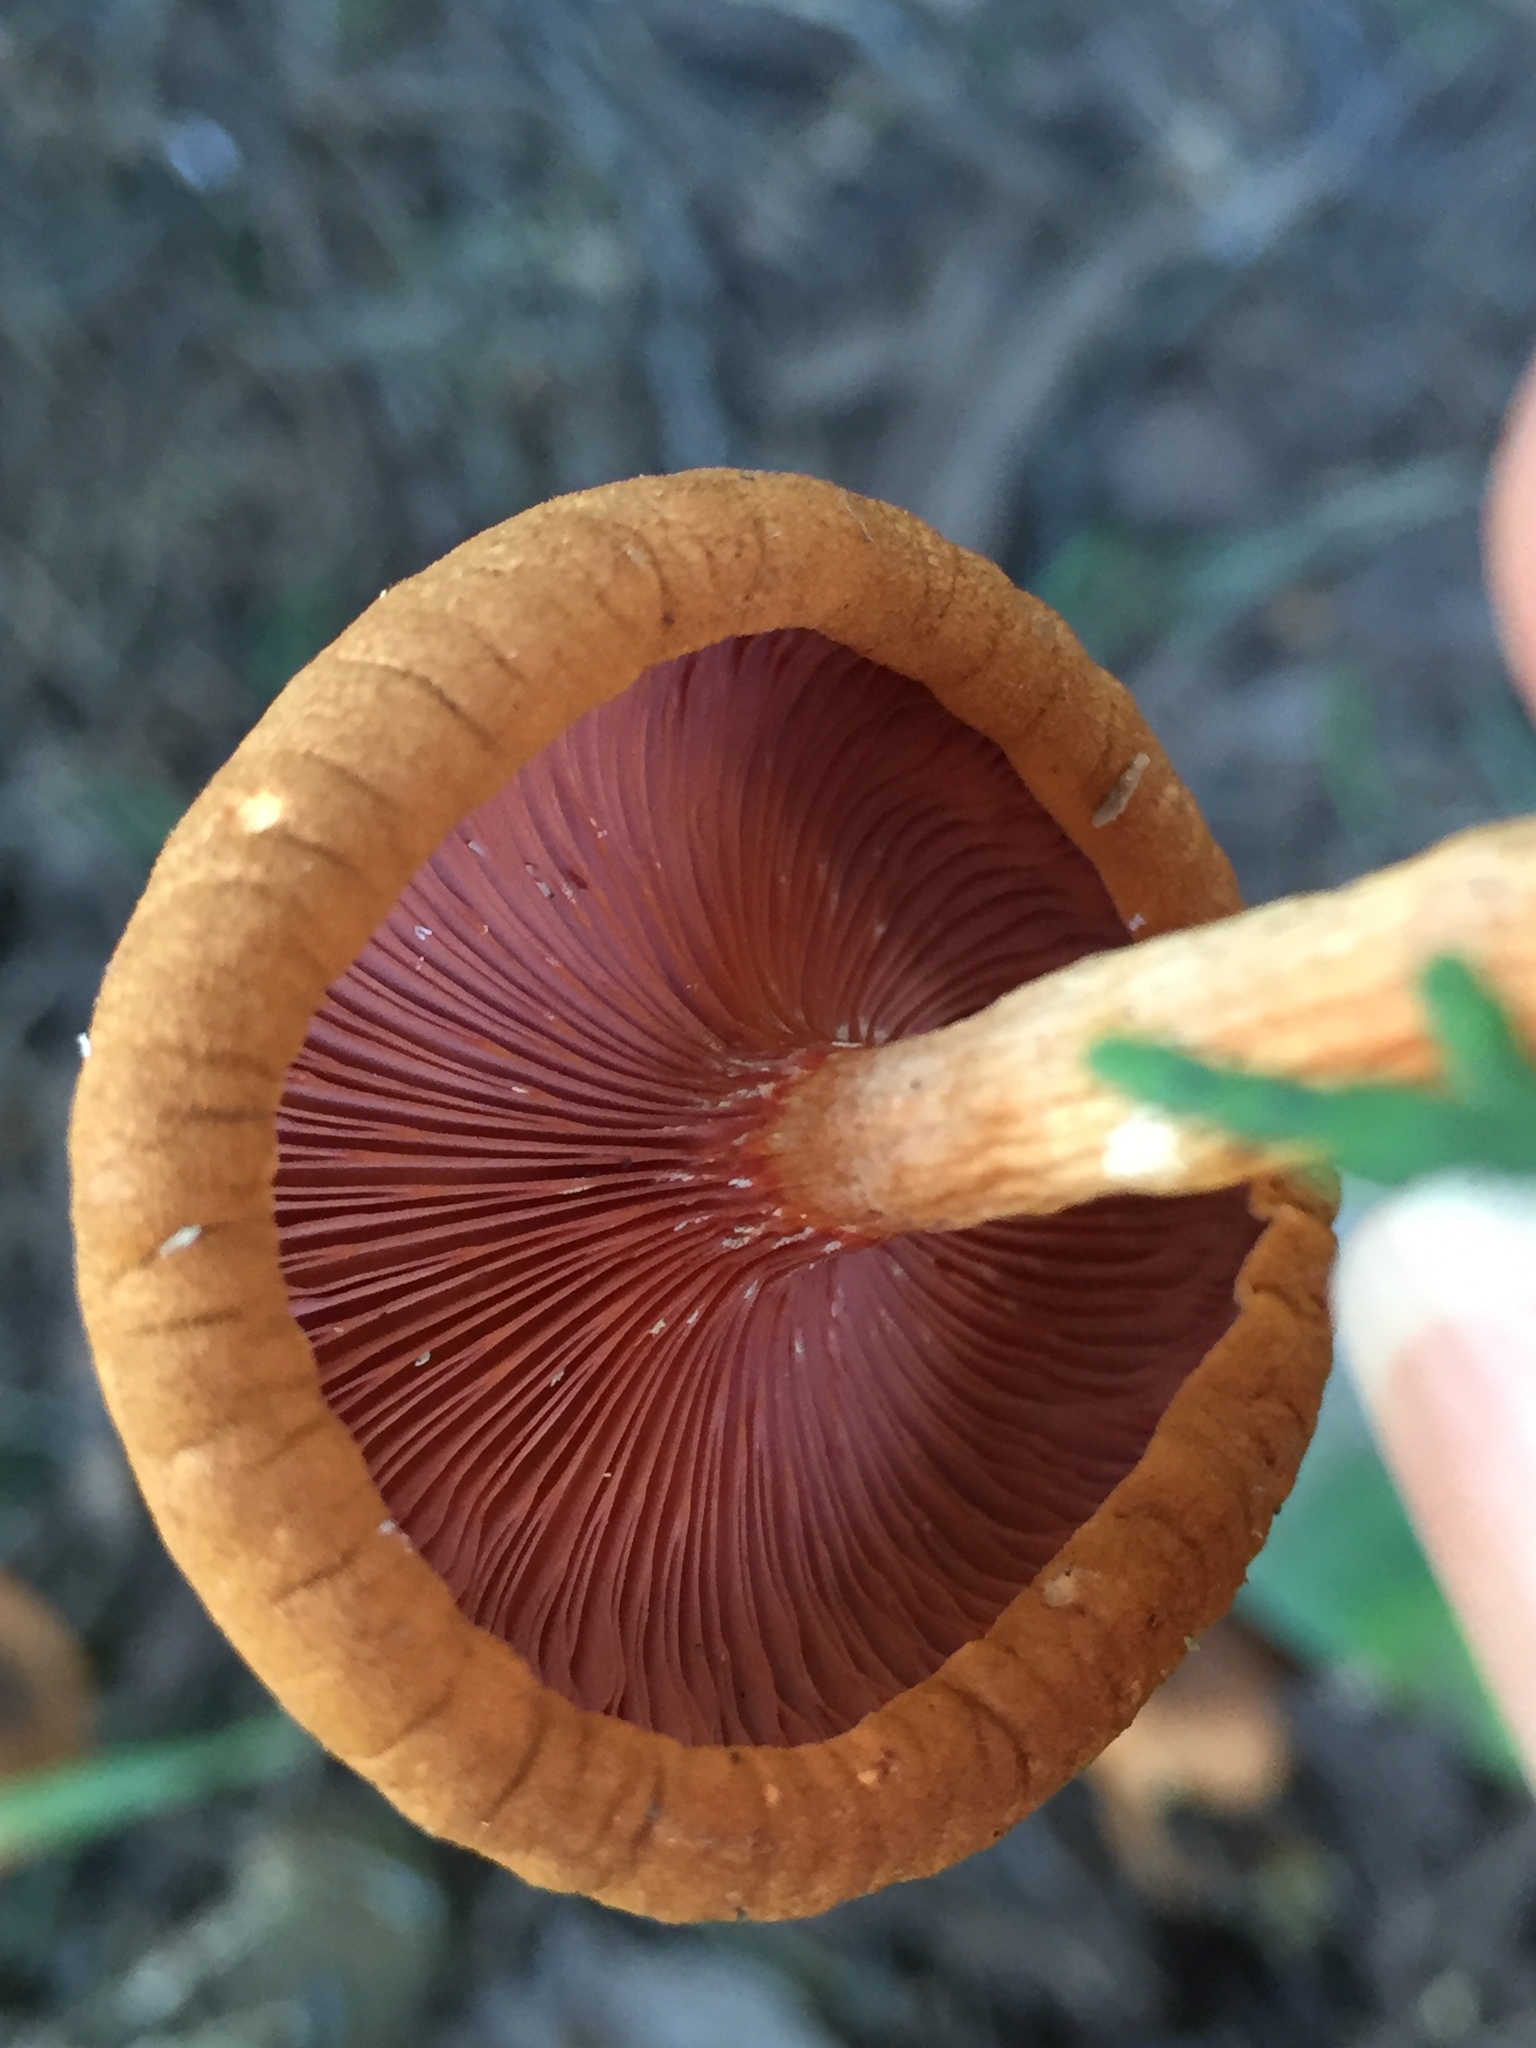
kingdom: Fungi
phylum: Basidiomycota
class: Agaricomycetes
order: Boletales
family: Hygrophoropsidaceae
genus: Hygrophoropsis
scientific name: Hygrophoropsis aurantiaca
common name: False chanterelle
